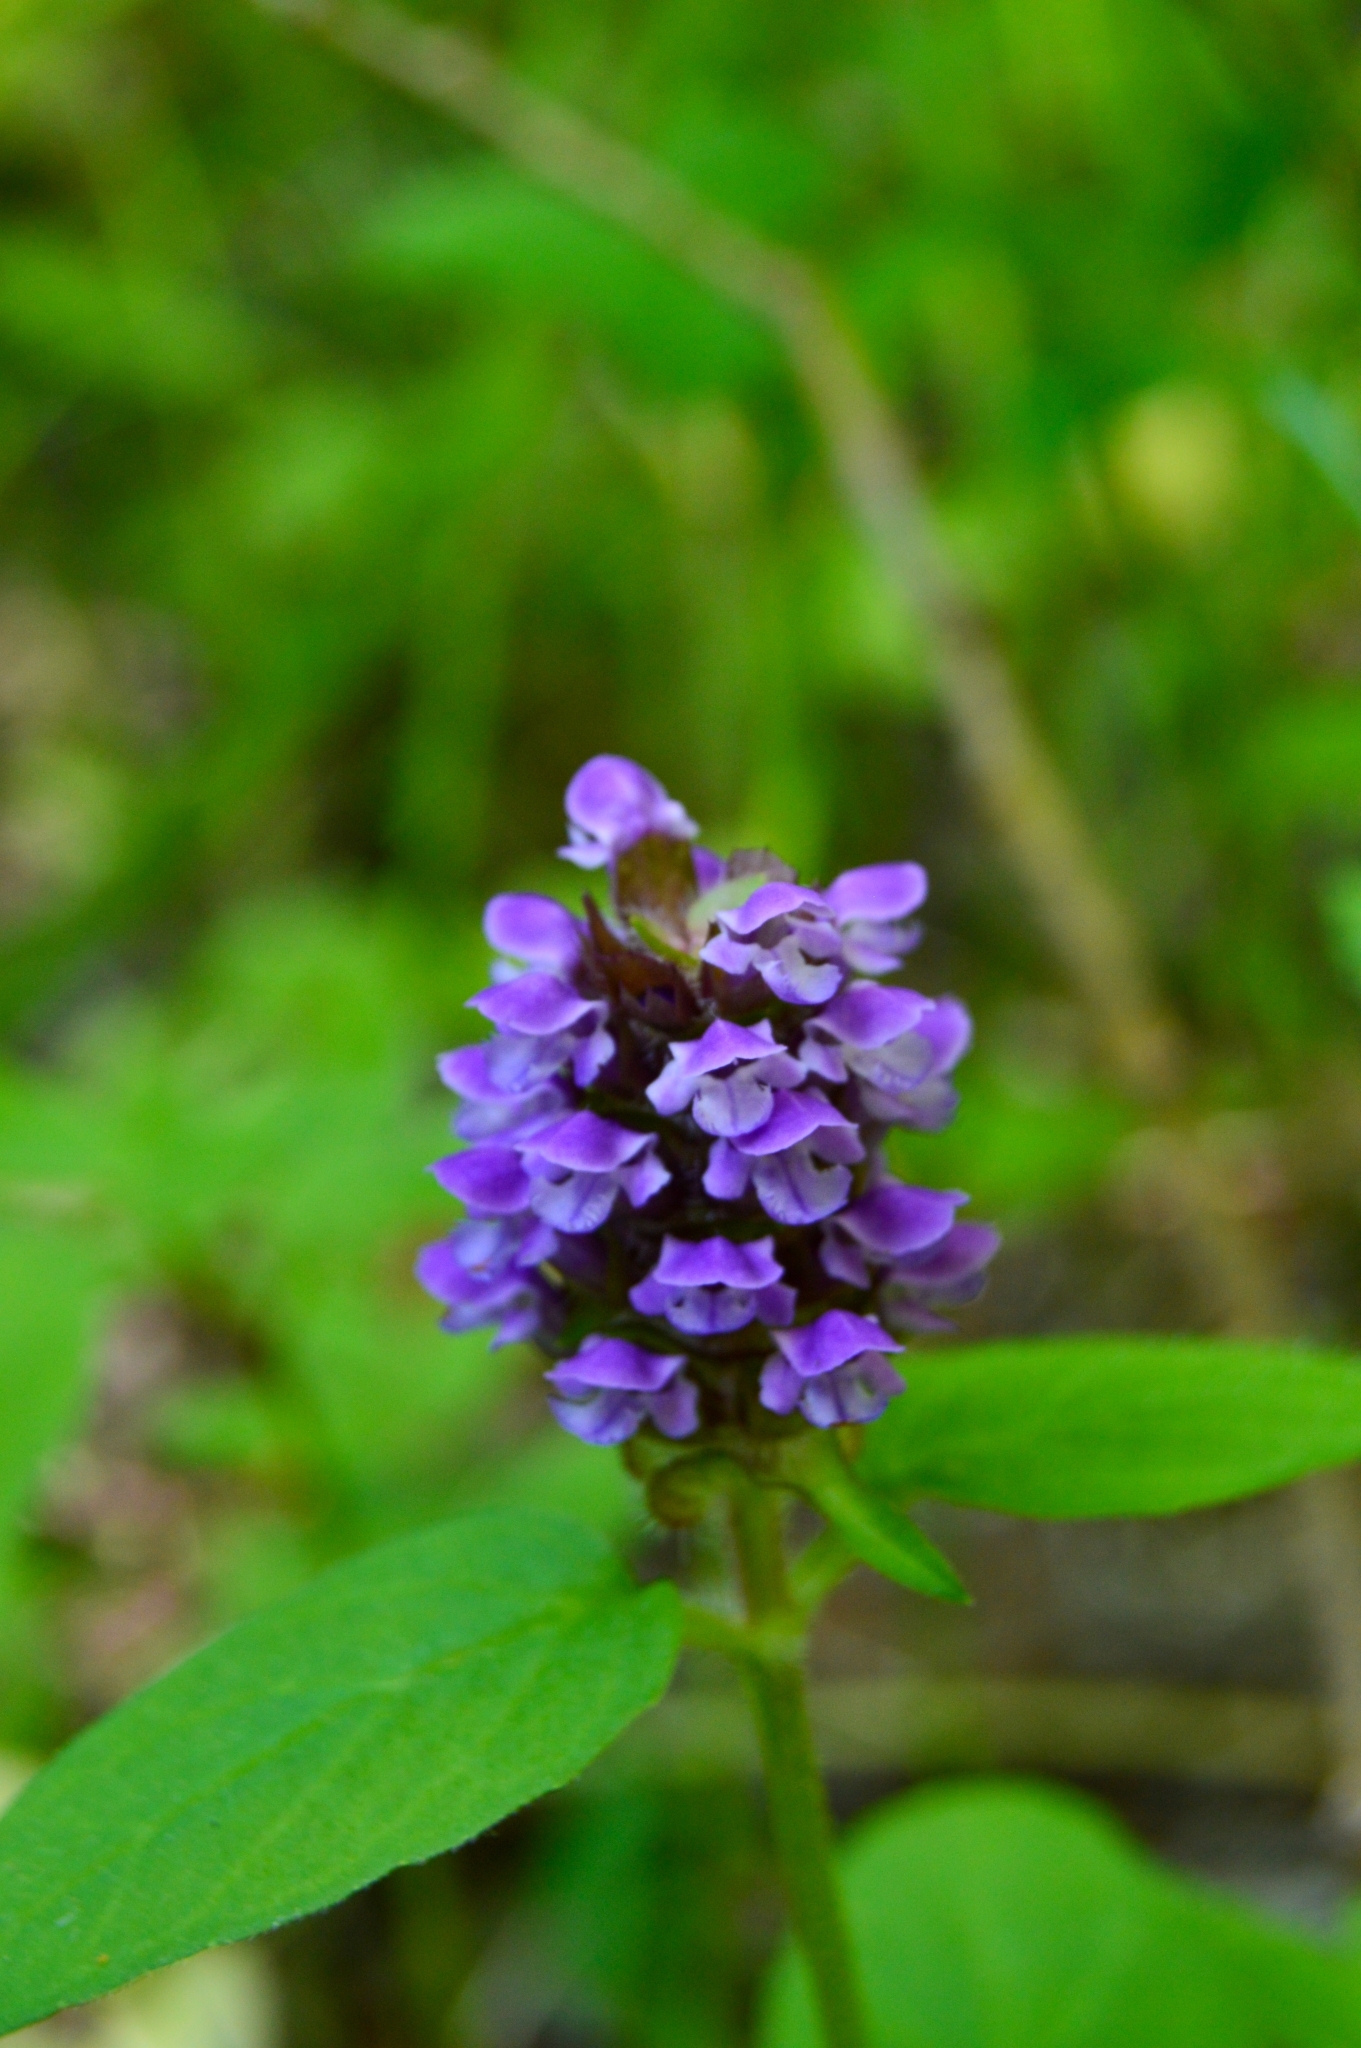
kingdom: Plantae
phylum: Tracheophyta
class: Magnoliopsida
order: Lamiales
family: Lamiaceae
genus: Prunella
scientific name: Prunella vulgaris
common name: Heal-all
